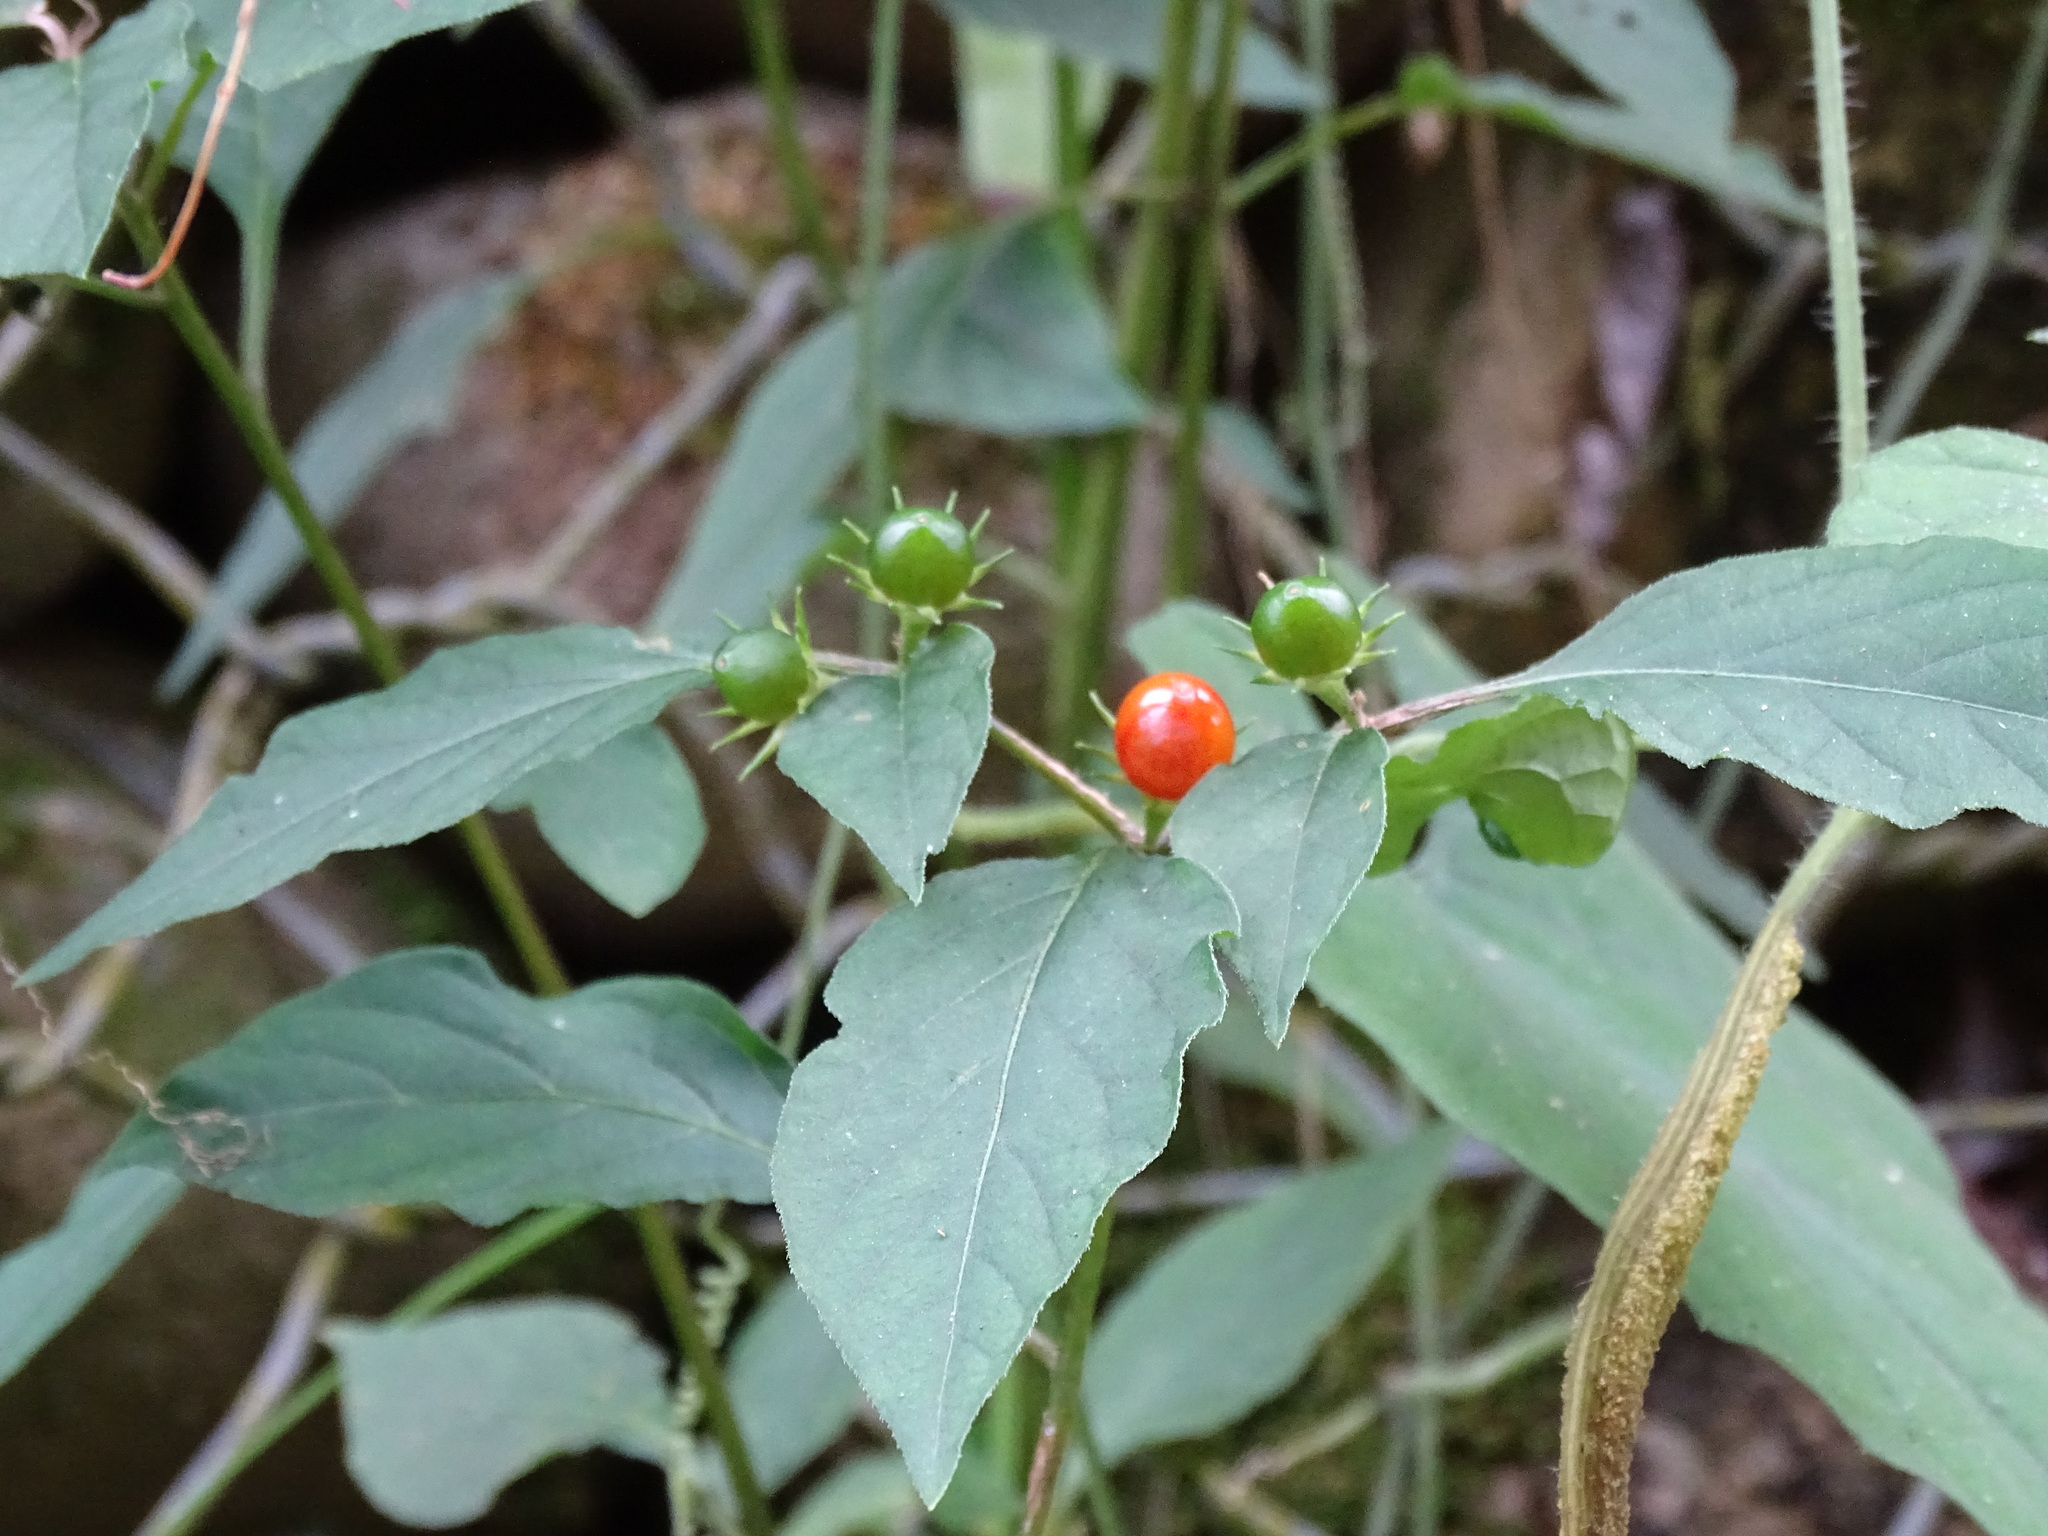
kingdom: Plantae
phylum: Tracheophyta
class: Magnoliopsida
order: Solanales
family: Solanaceae
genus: Lycianthes
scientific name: Lycianthes biflora
